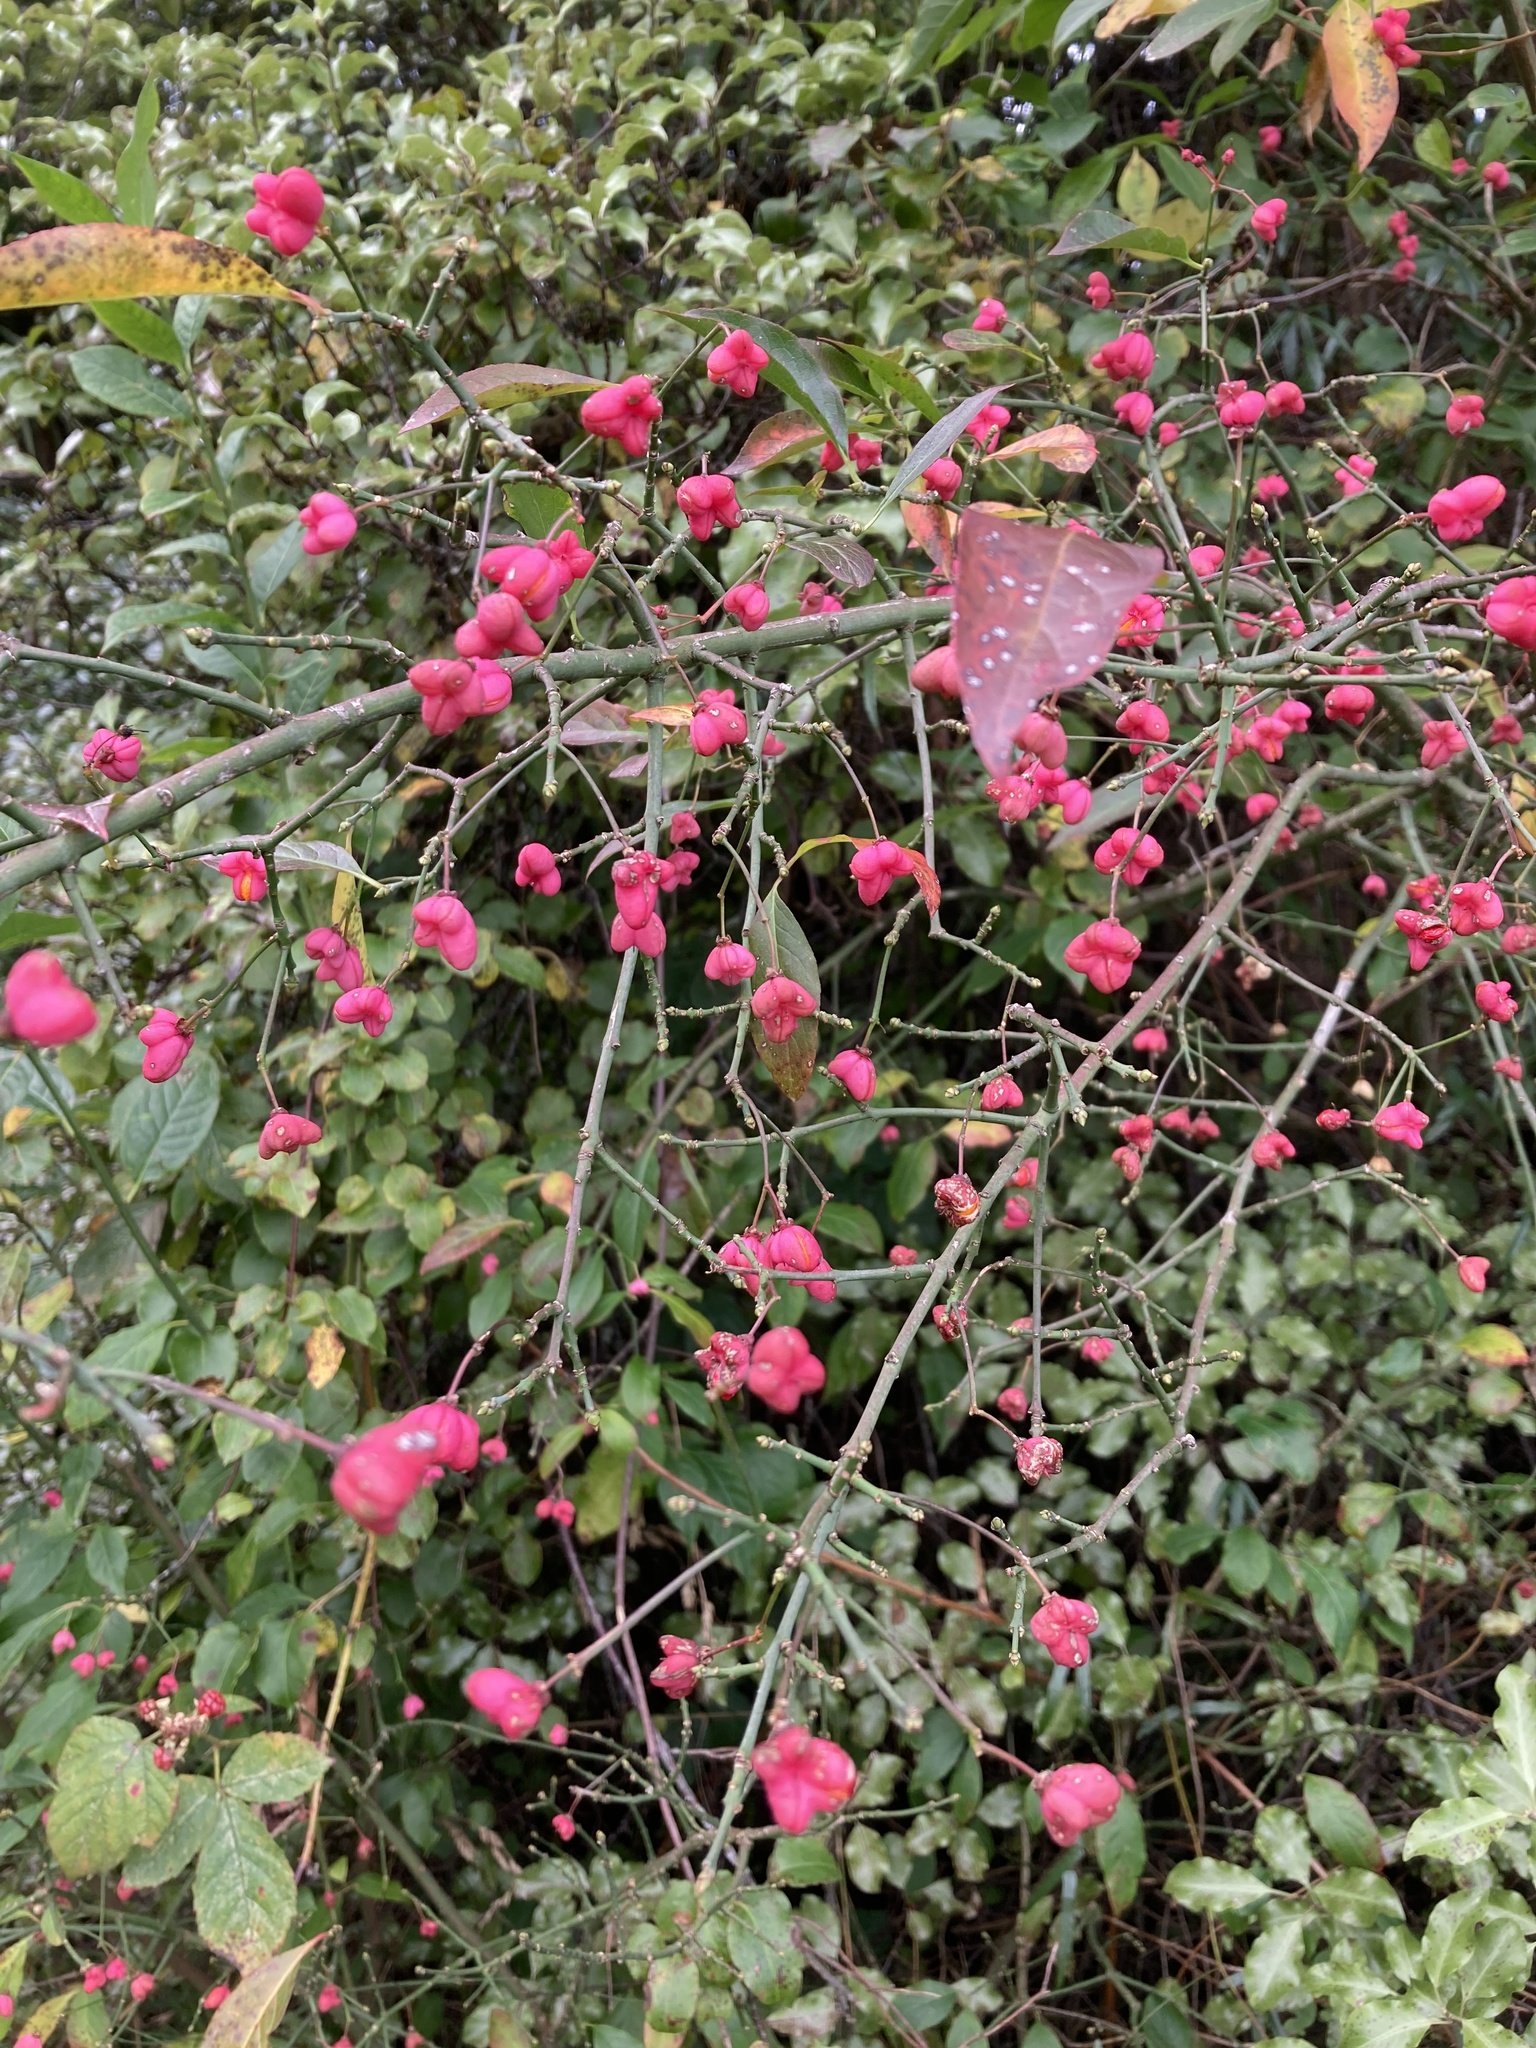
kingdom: Plantae
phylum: Tracheophyta
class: Magnoliopsida
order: Celastrales
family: Celastraceae
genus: Euonymus
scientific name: Euonymus europaeus
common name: Spindle
